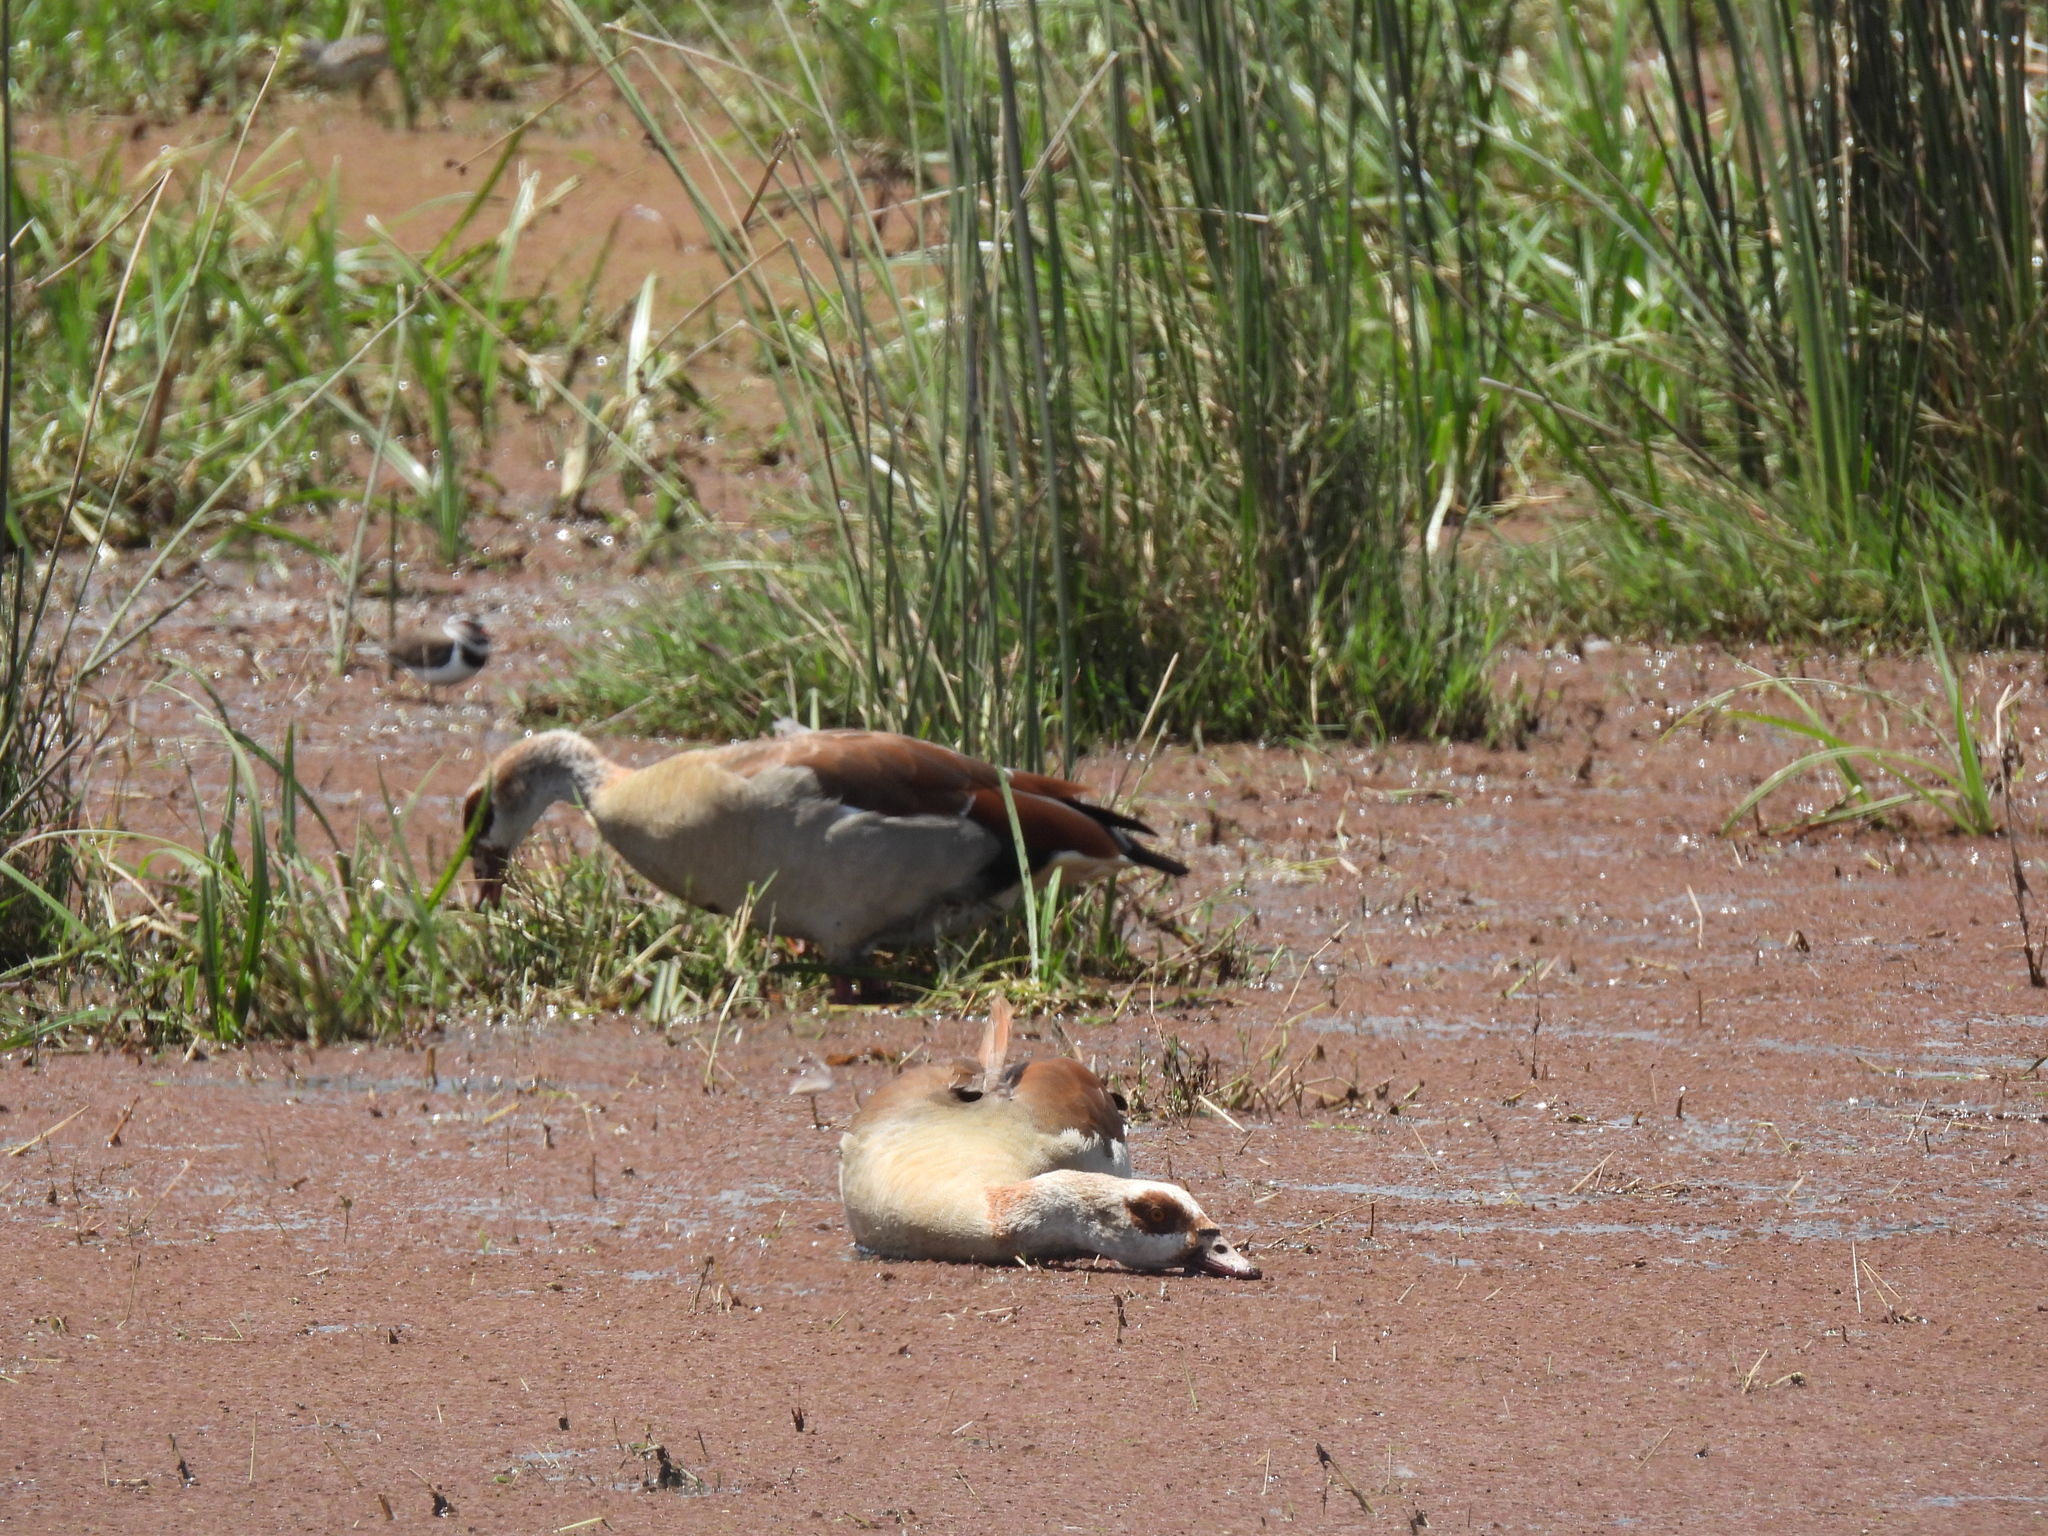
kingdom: Animalia
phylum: Chordata
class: Aves
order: Anseriformes
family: Anatidae
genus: Alopochen
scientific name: Alopochen aegyptiaca
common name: Egyptian goose
